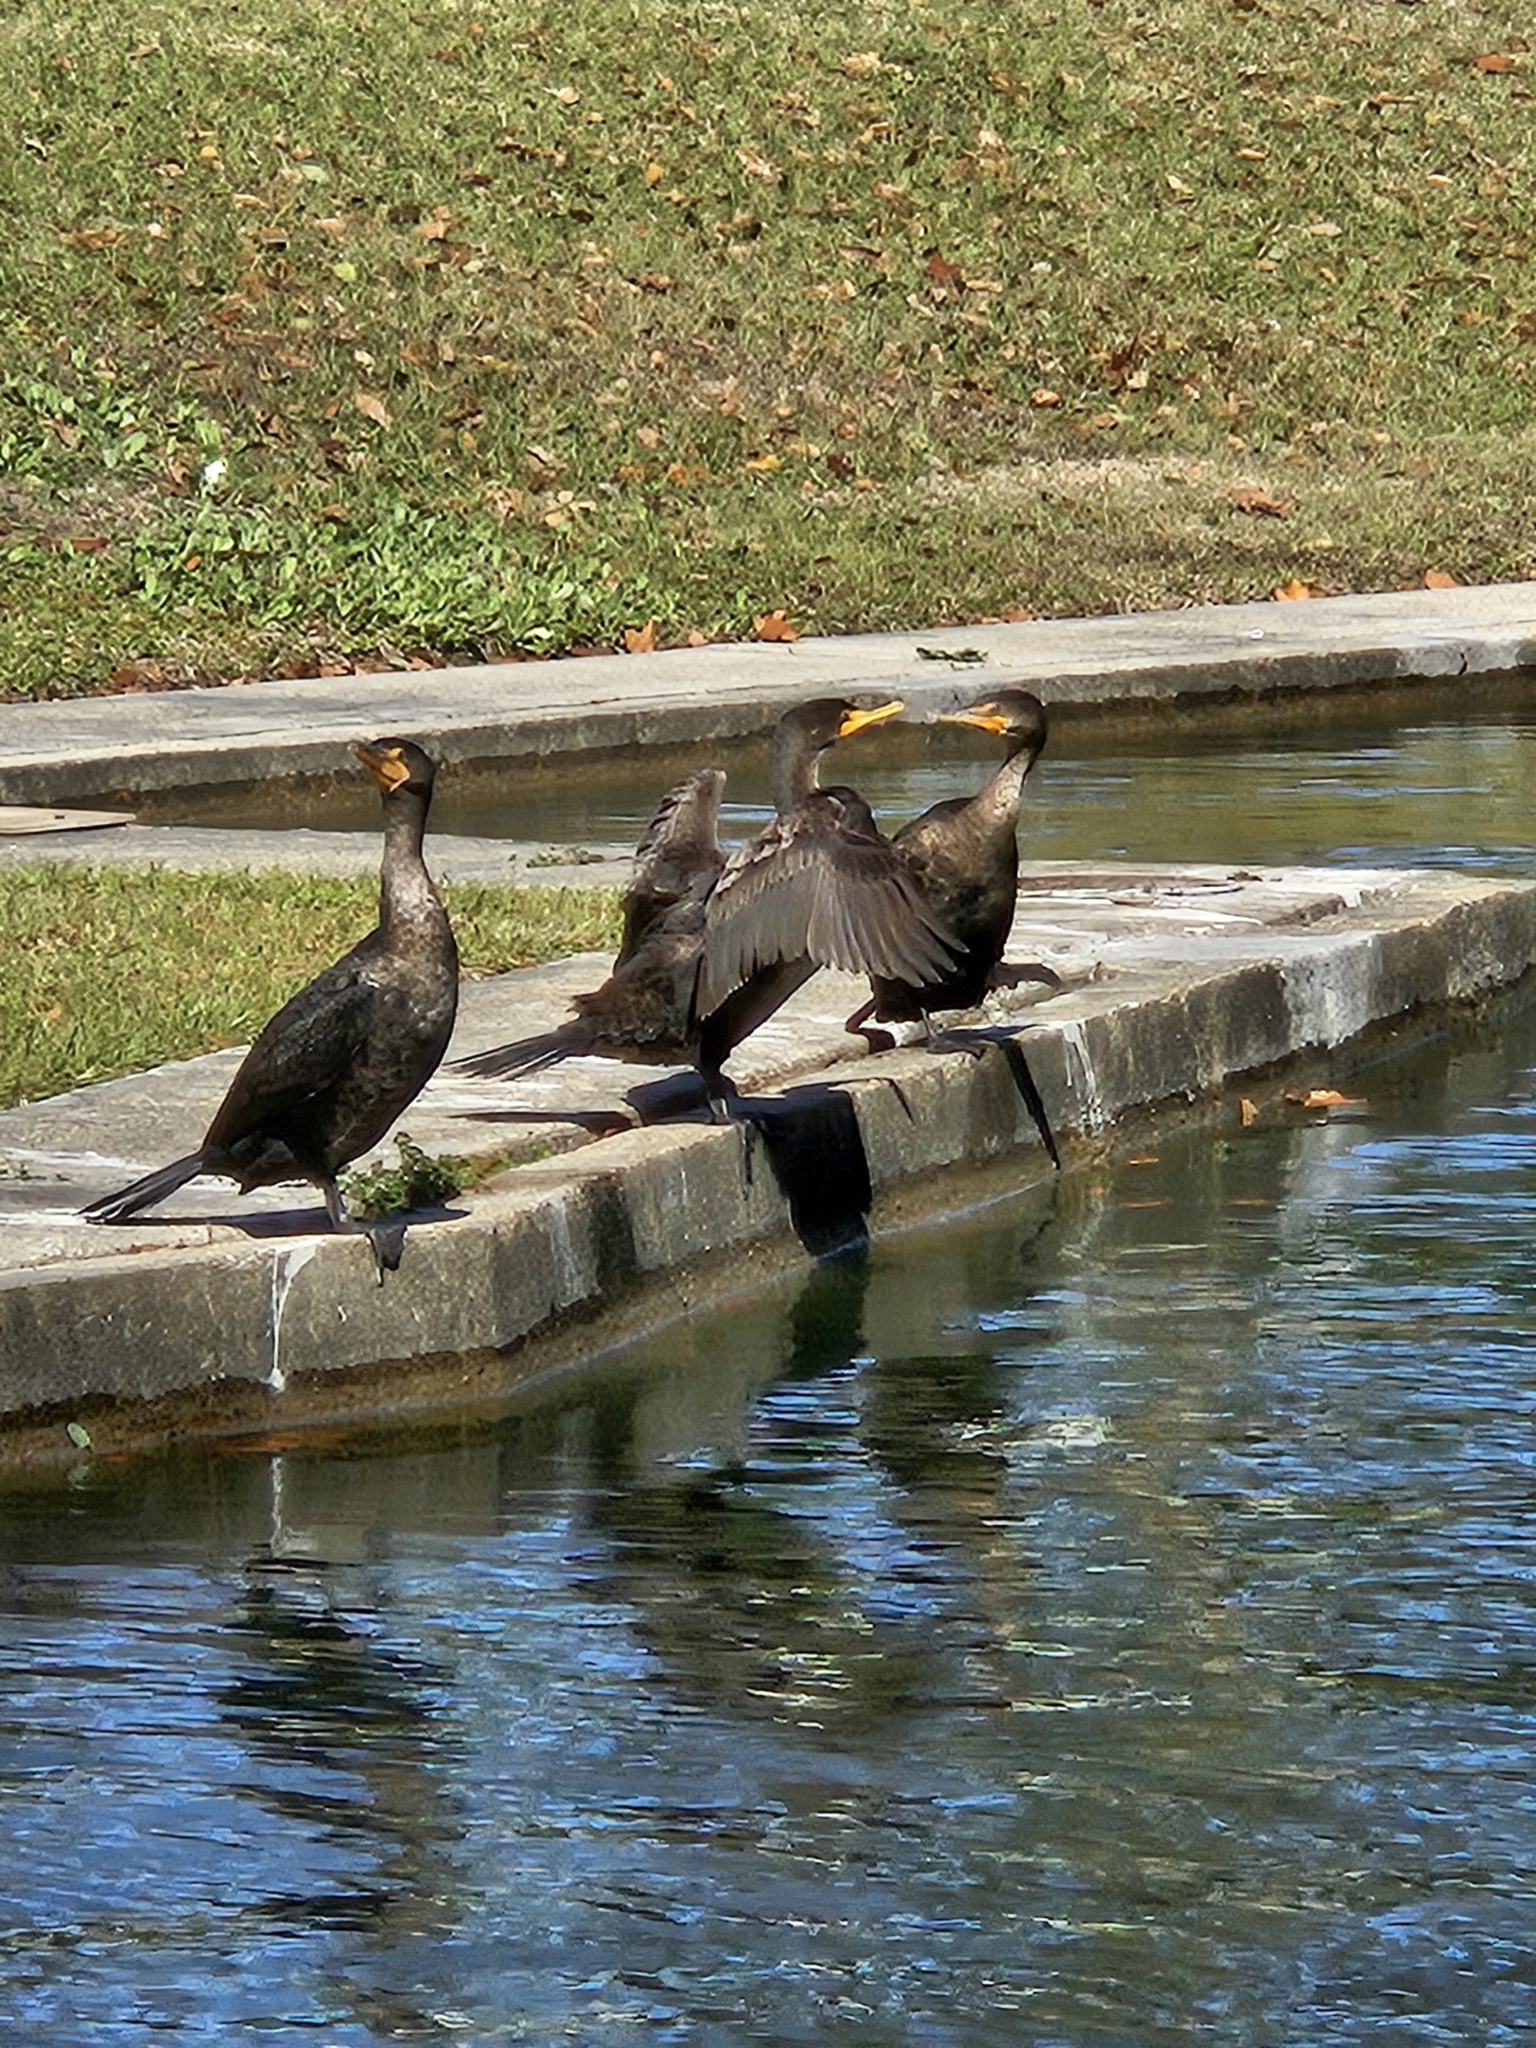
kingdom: Animalia
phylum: Chordata
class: Aves
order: Suliformes
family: Phalacrocoracidae
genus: Phalacrocorax
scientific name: Phalacrocorax auritus
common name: Double-crested cormorant
